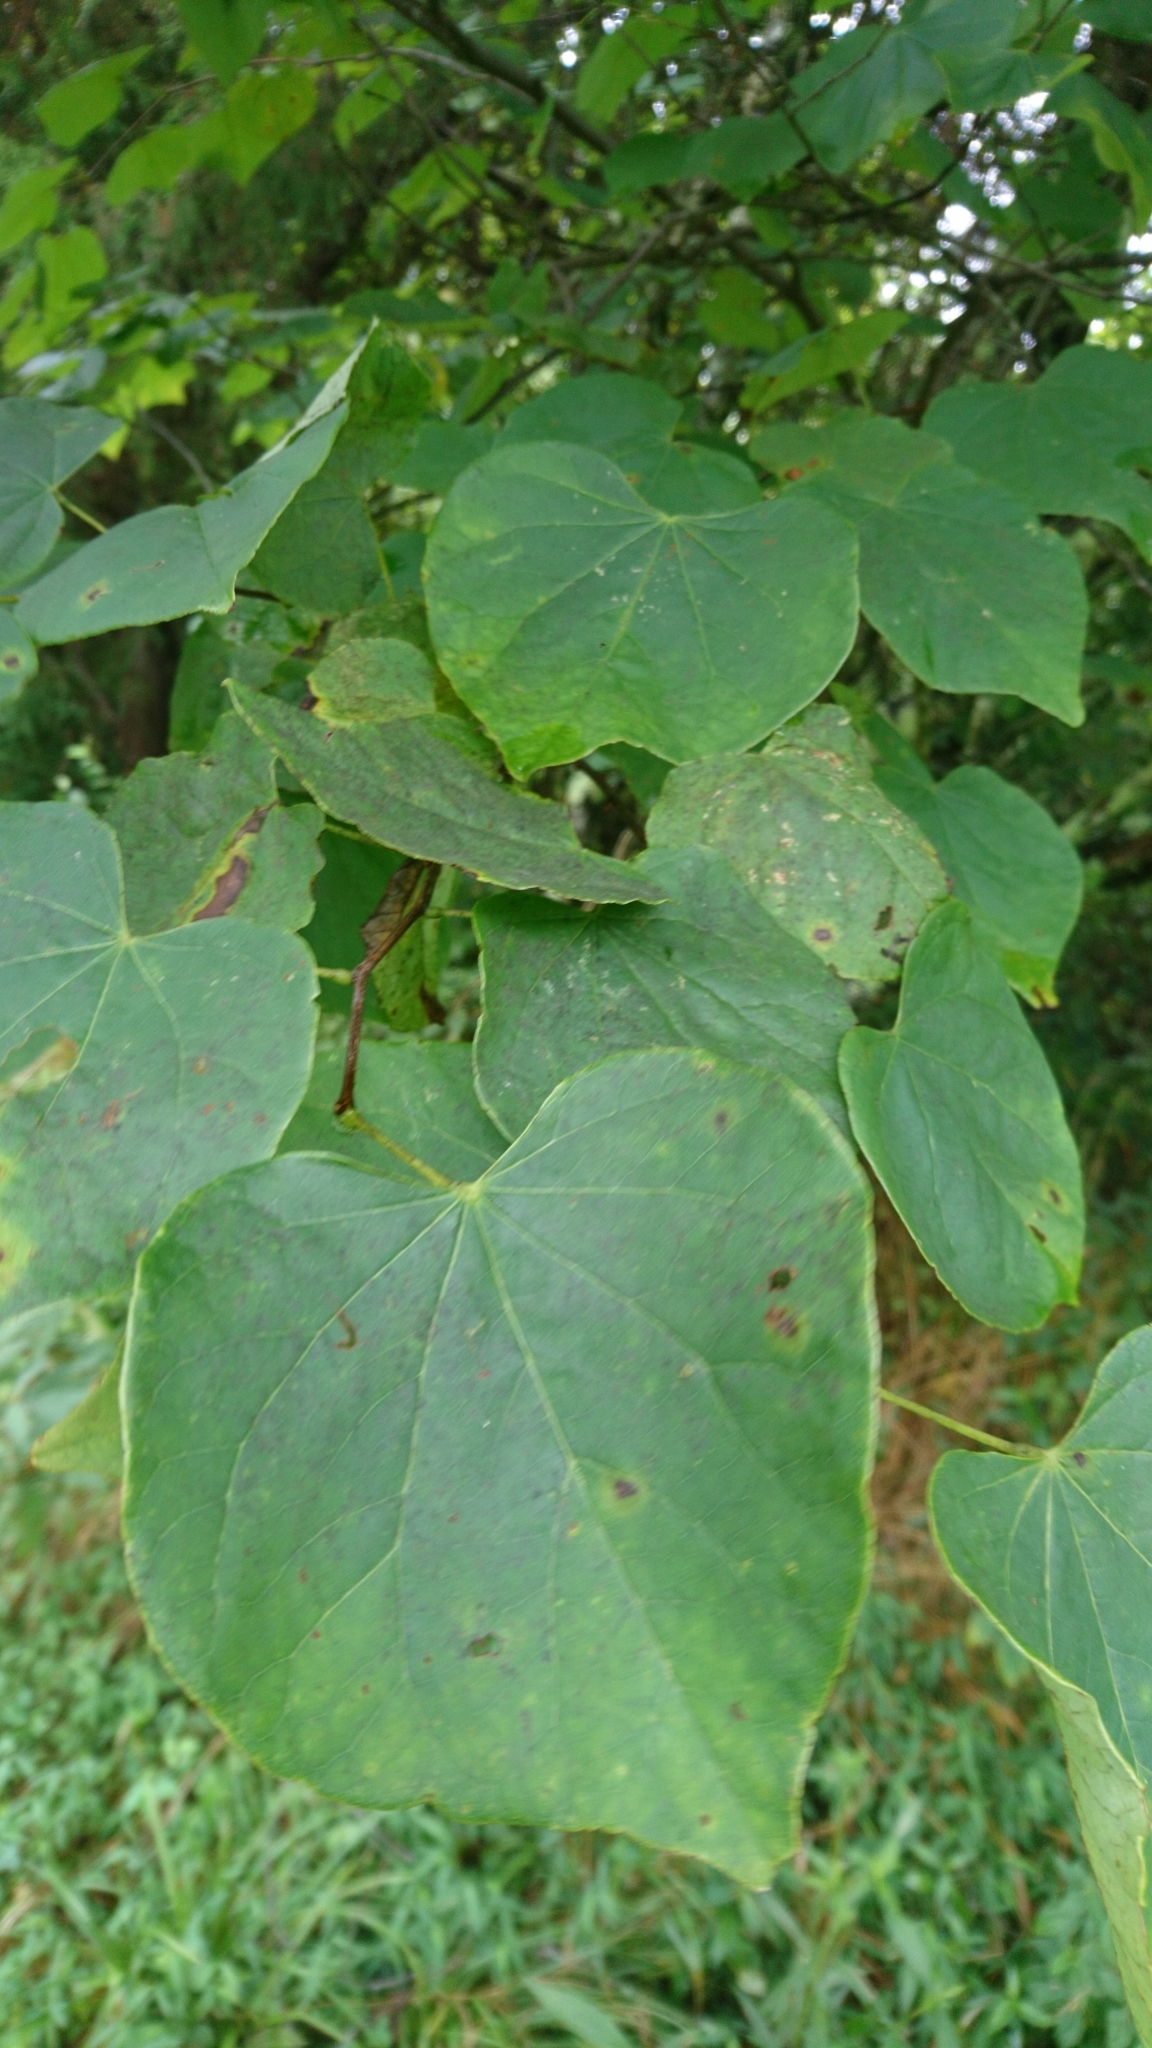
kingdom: Plantae
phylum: Tracheophyta
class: Magnoliopsida
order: Fabales
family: Fabaceae
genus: Cercis
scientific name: Cercis canadensis
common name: Eastern redbud
